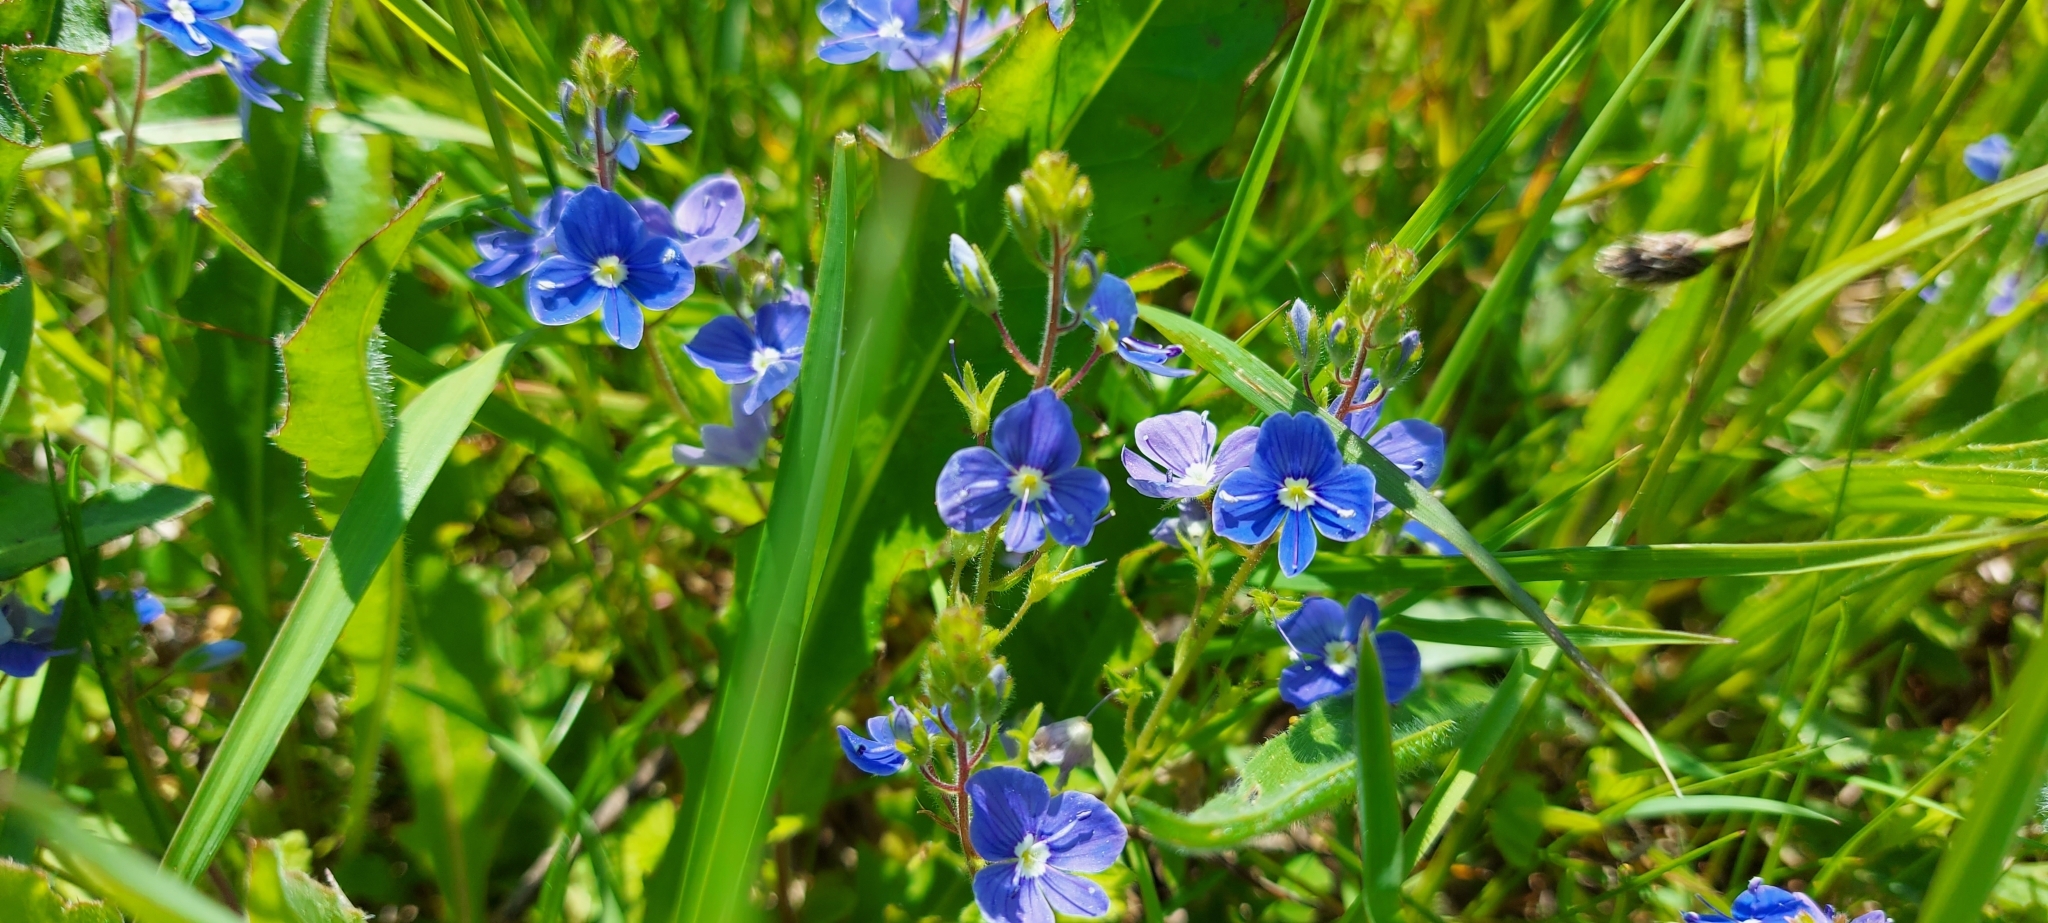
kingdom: Plantae
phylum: Tracheophyta
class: Magnoliopsida
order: Lamiales
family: Plantaginaceae
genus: Veronica
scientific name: Veronica chamaedrys
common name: Germander speedwell
